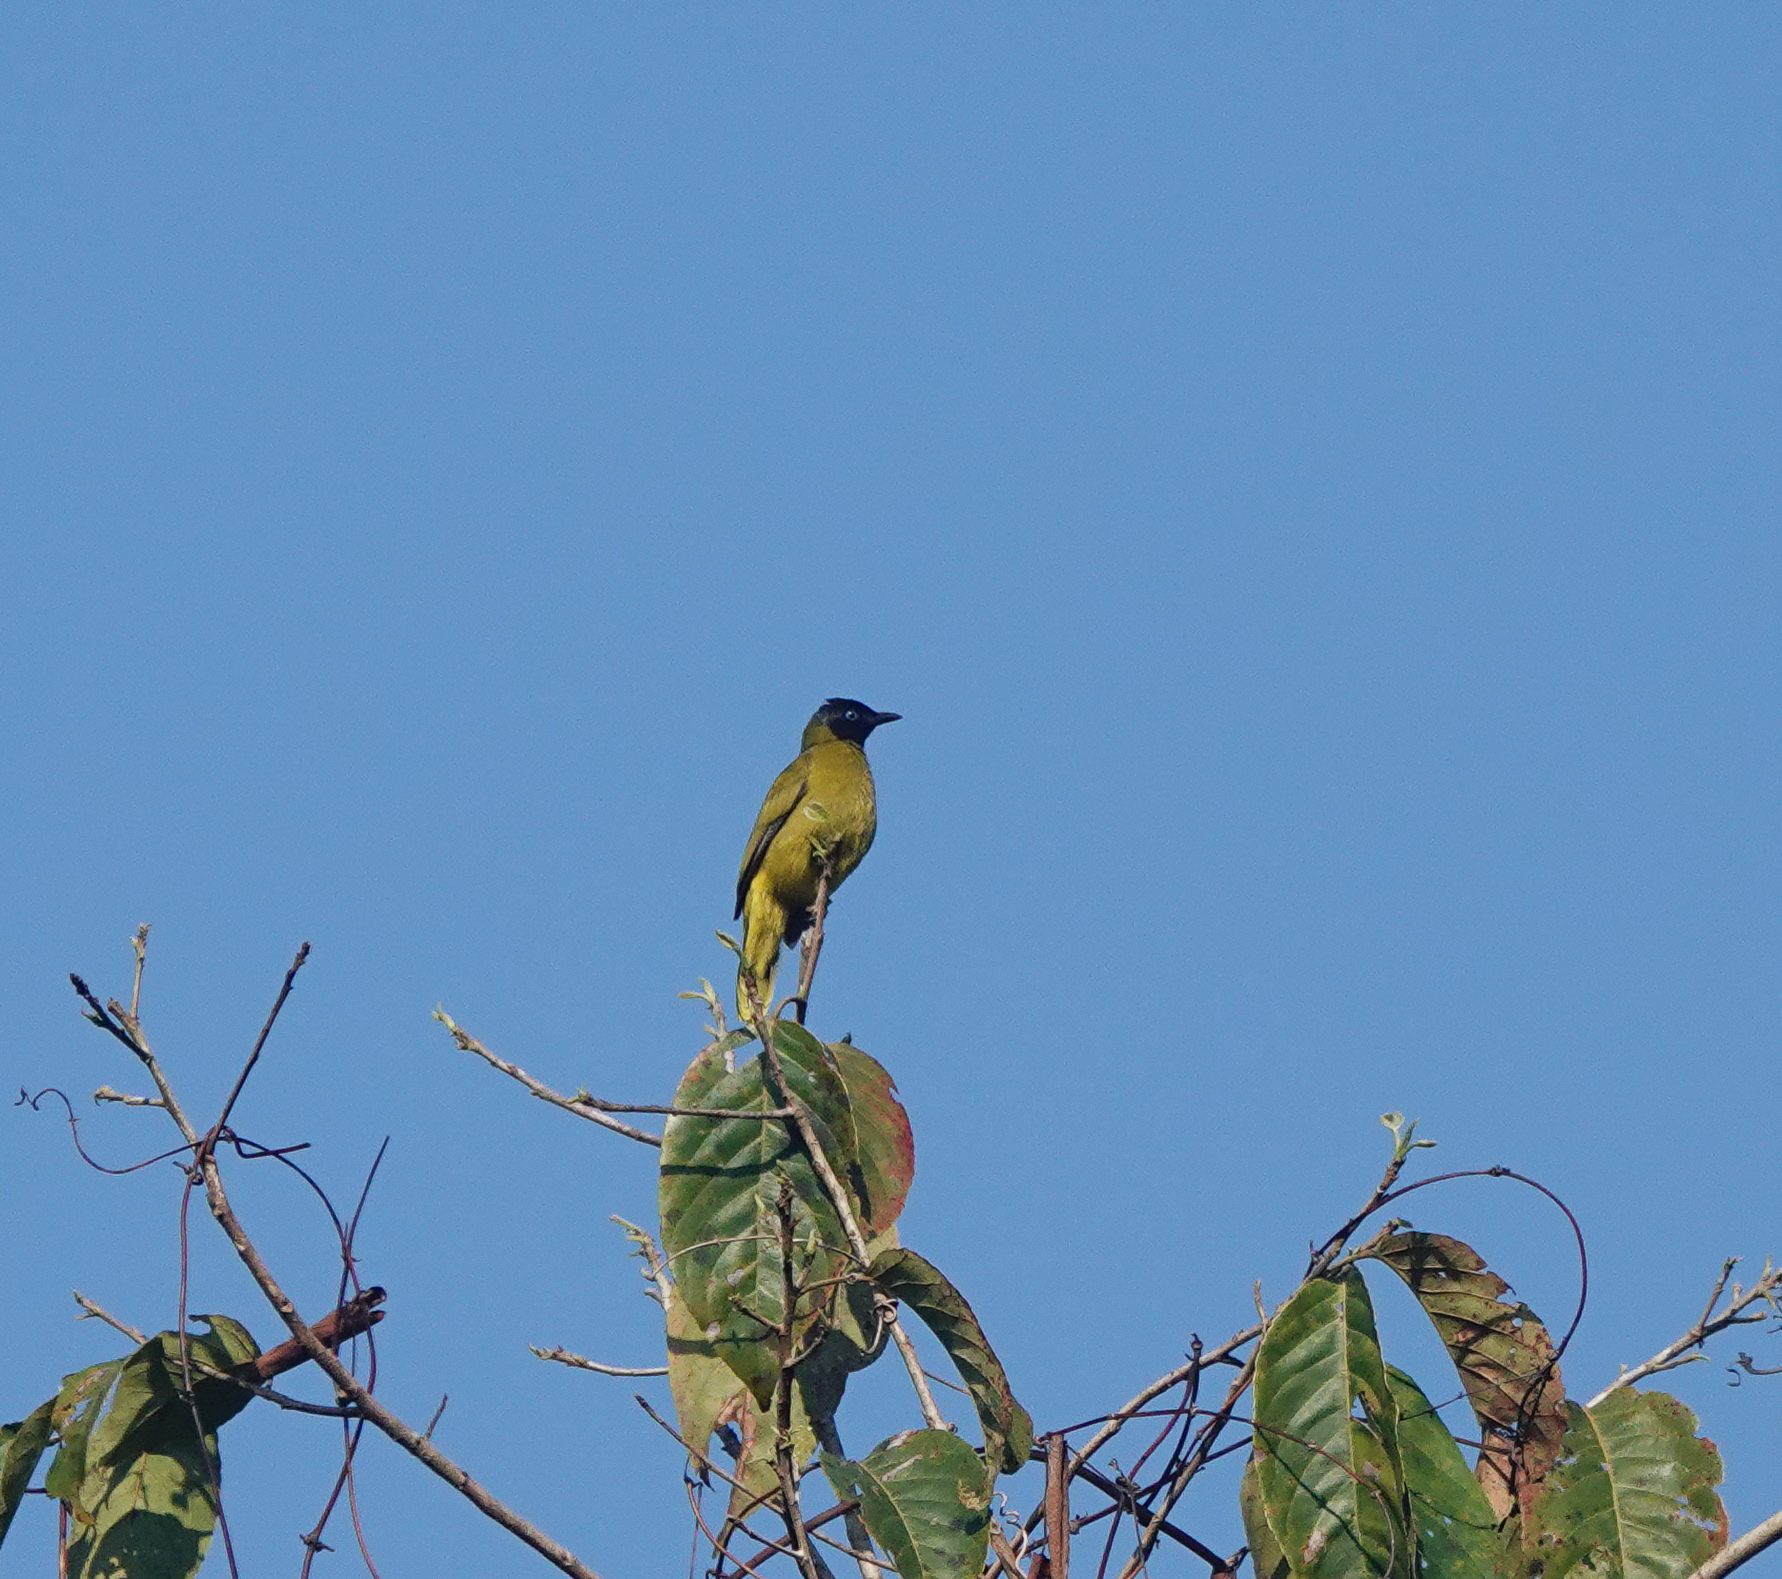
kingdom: Animalia
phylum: Chordata
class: Aves
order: Passeriformes
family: Pycnonotidae
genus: Microtarsus
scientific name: Microtarsus
